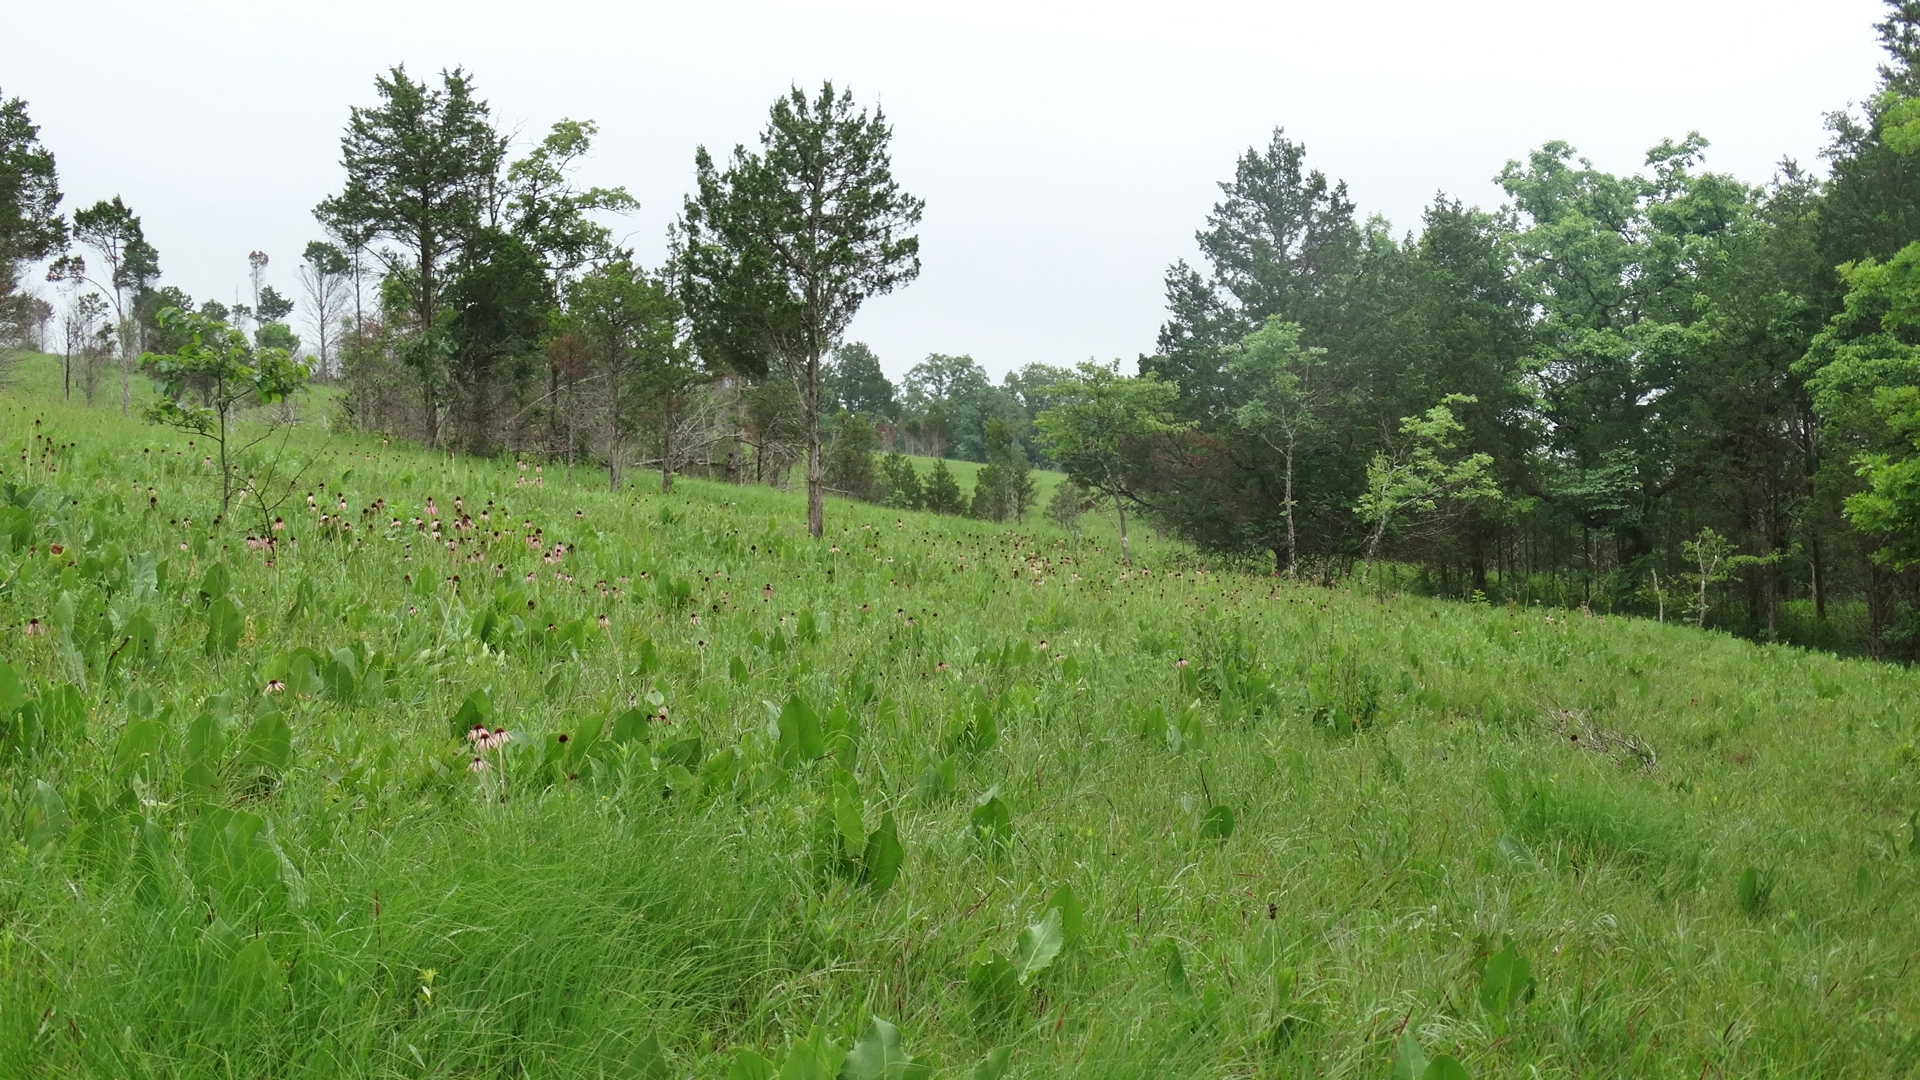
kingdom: Plantae
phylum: Tracheophyta
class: Magnoliopsida
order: Asterales
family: Asteraceae
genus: Silphium
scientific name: Silphium terebinthinaceum
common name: Basal-leaf rosinweed
